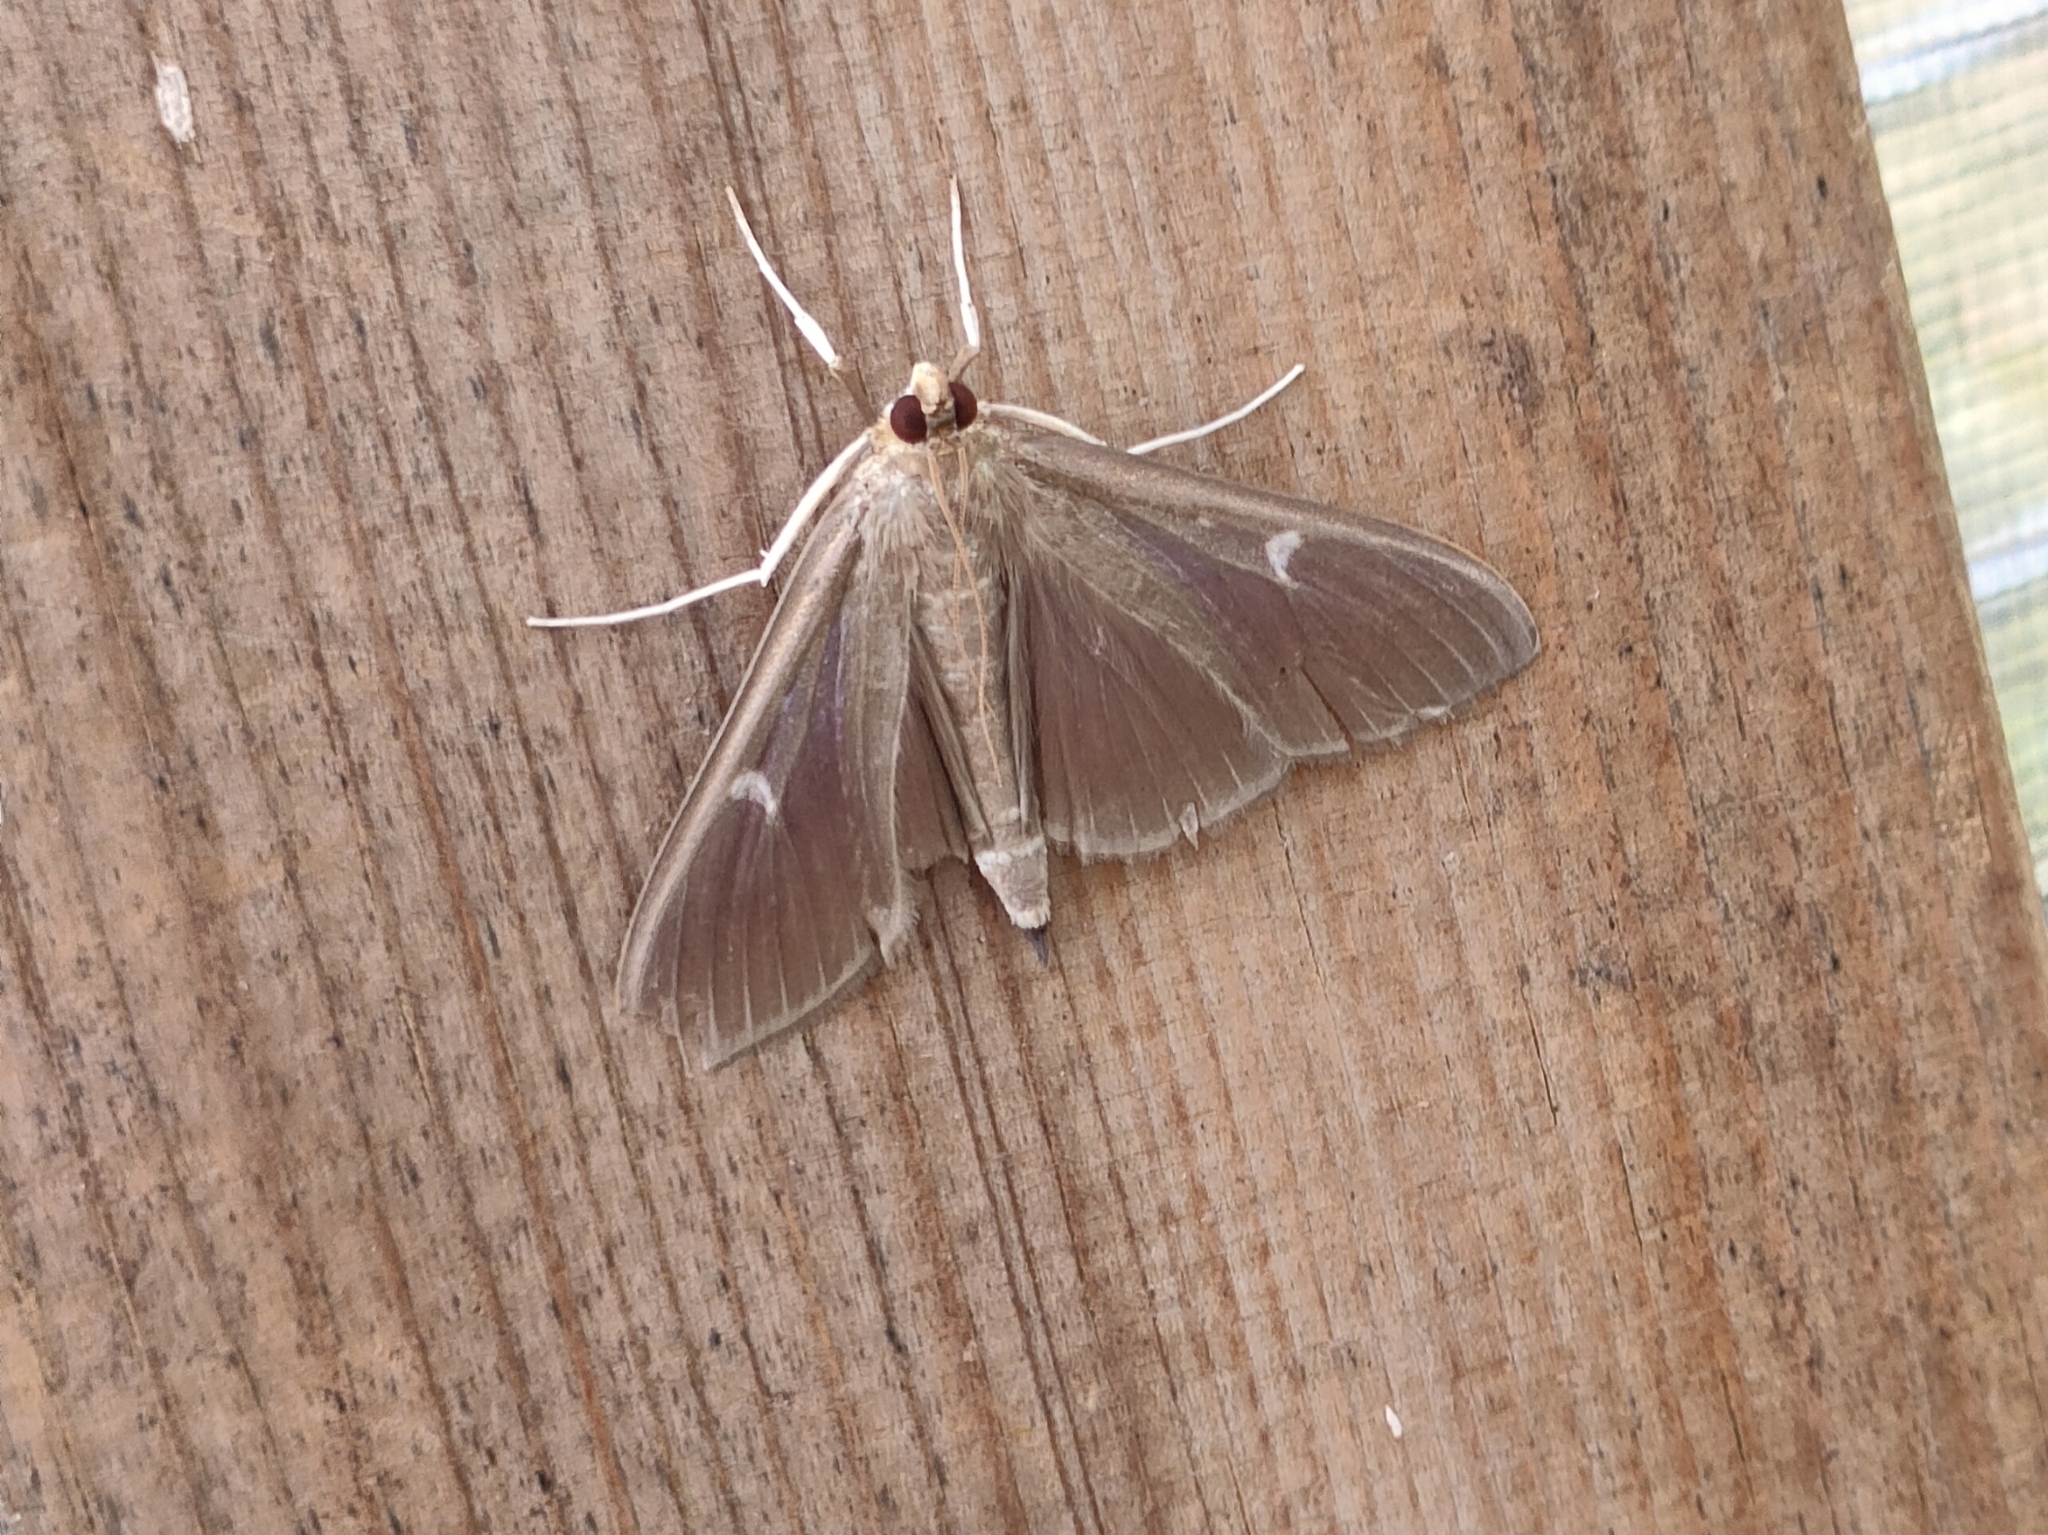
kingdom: Animalia
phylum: Arthropoda
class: Insecta
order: Lepidoptera
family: Crambidae
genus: Cydalima
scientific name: Cydalima perspectalis
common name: Box tree moth
